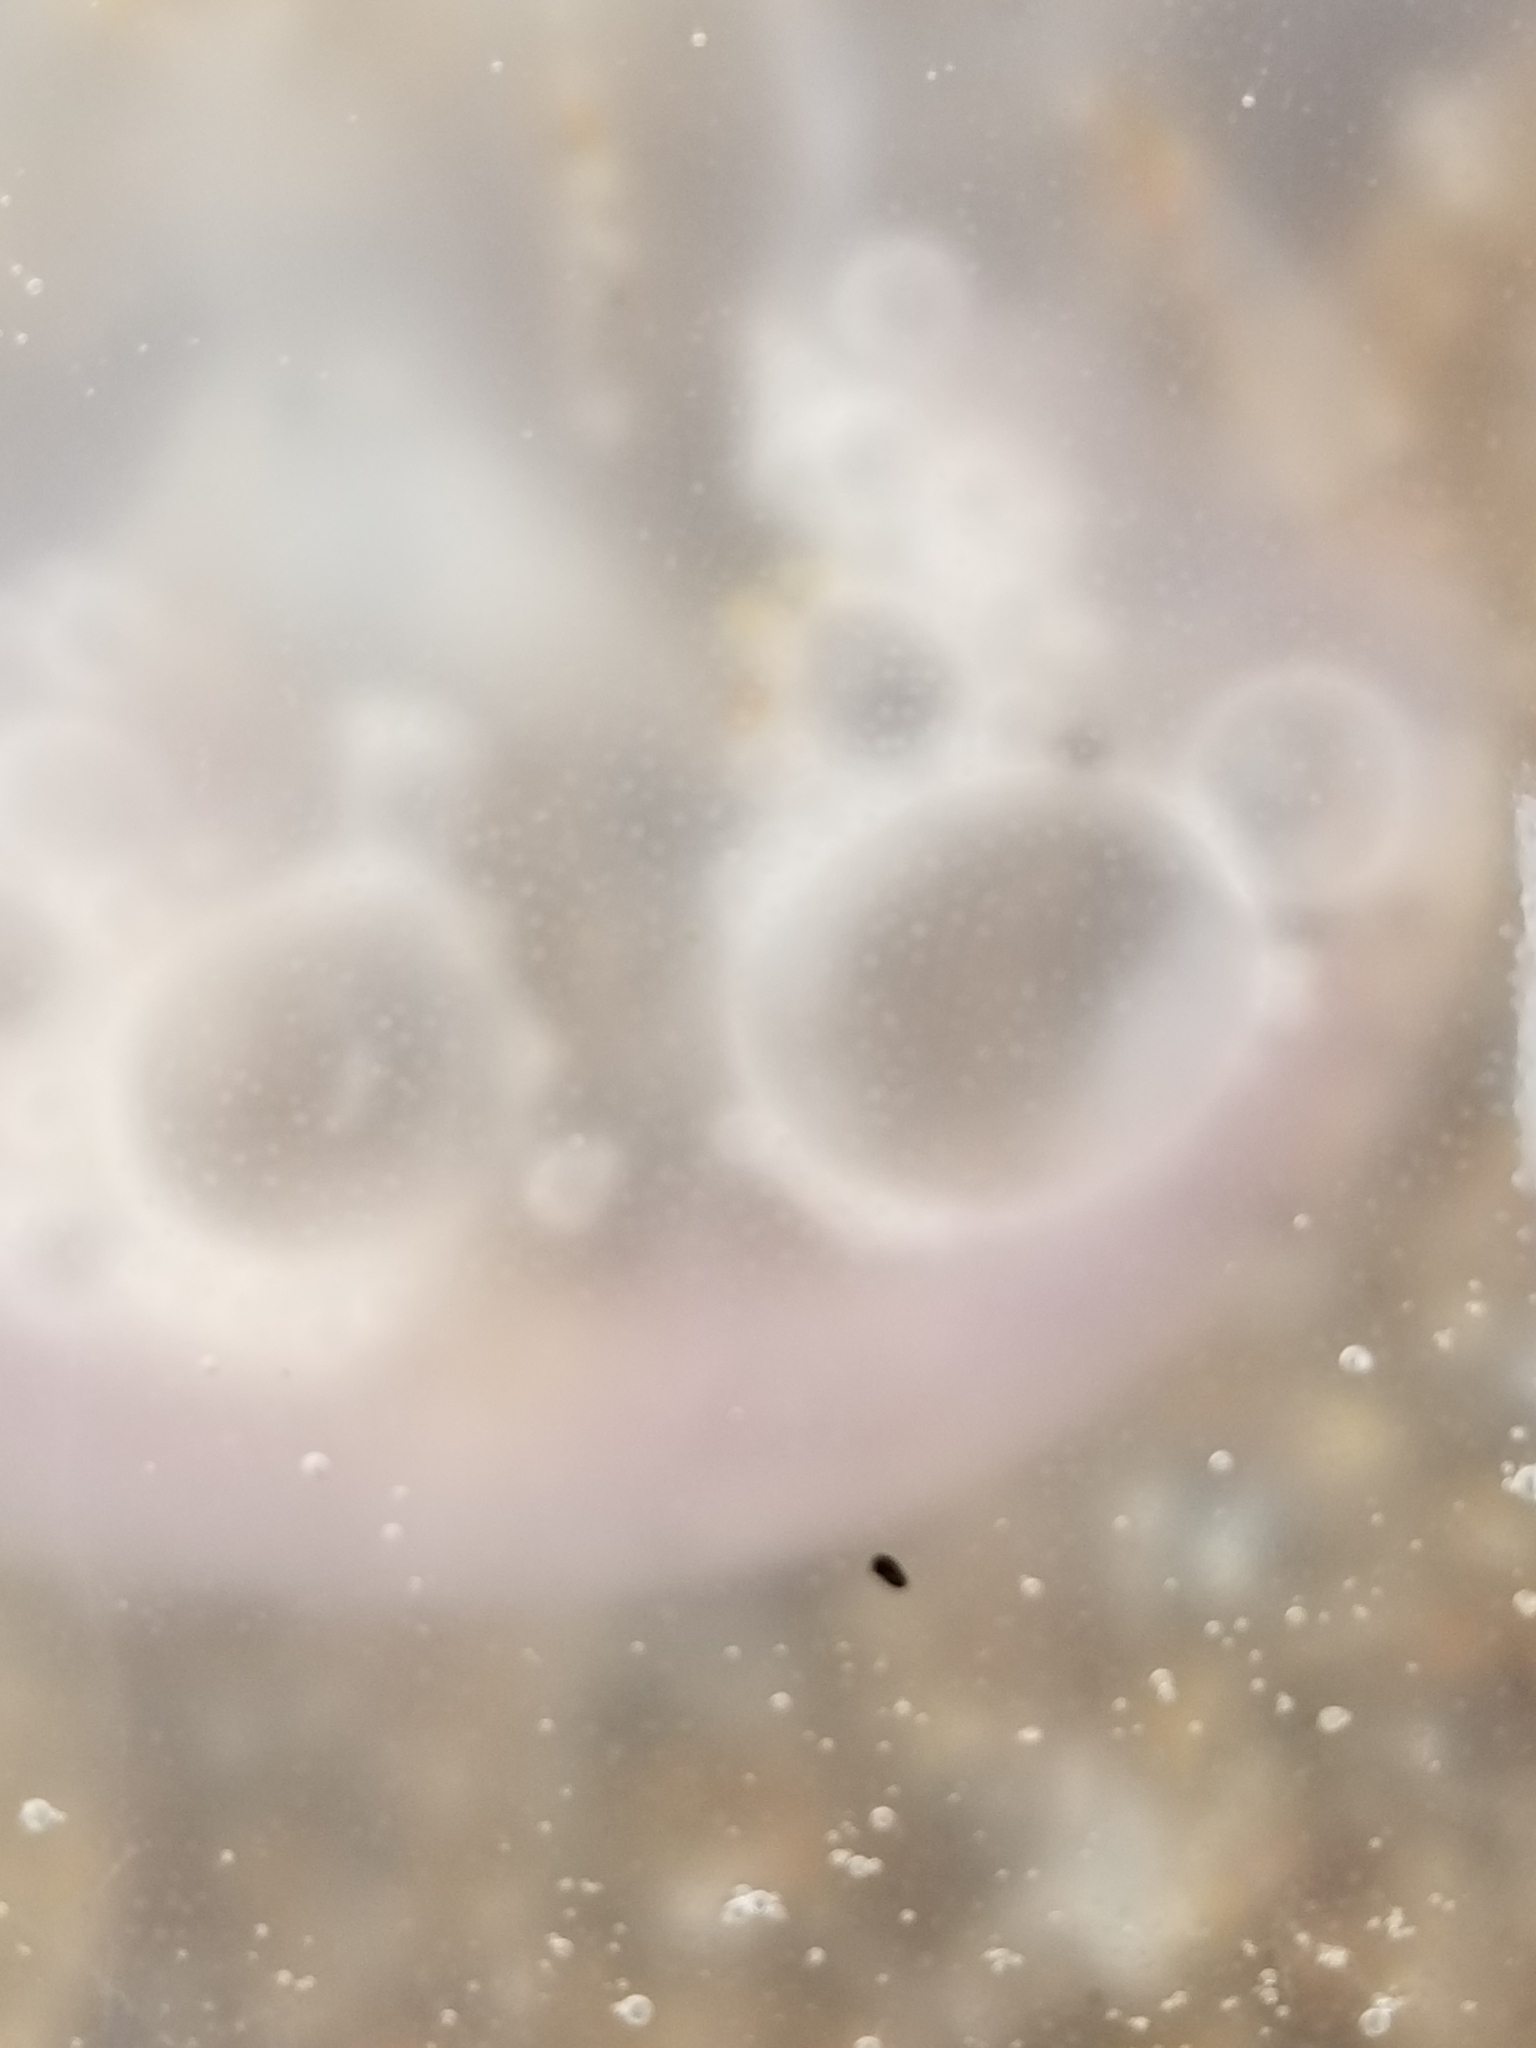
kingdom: Animalia
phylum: Cnidaria
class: Scyphozoa
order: Semaeostomeae
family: Ulmaridae
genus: Aurelia
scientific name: Aurelia labiata
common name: Pacific moon jelly
